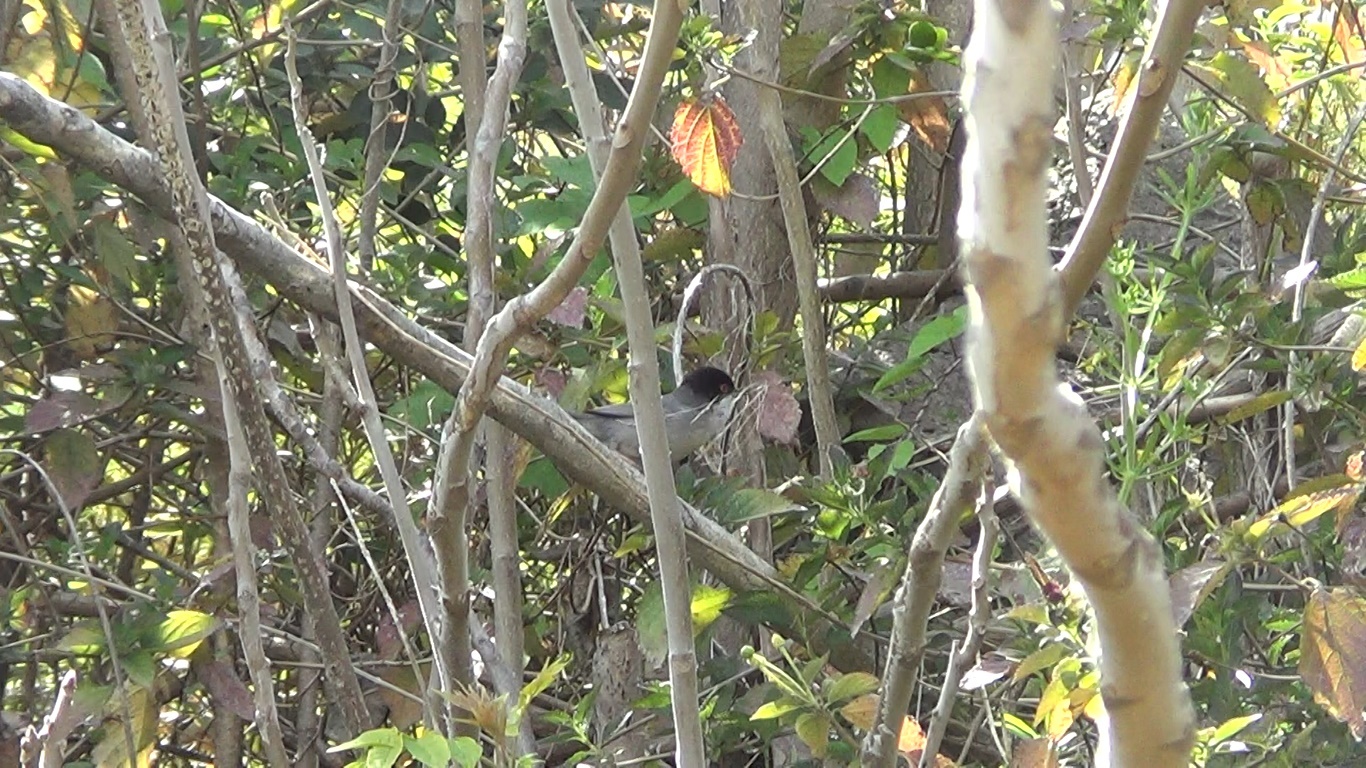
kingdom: Animalia
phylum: Chordata
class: Aves
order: Passeriformes
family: Sylviidae
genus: Curruca
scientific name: Curruca melanocephala
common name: Sardinian warbler
